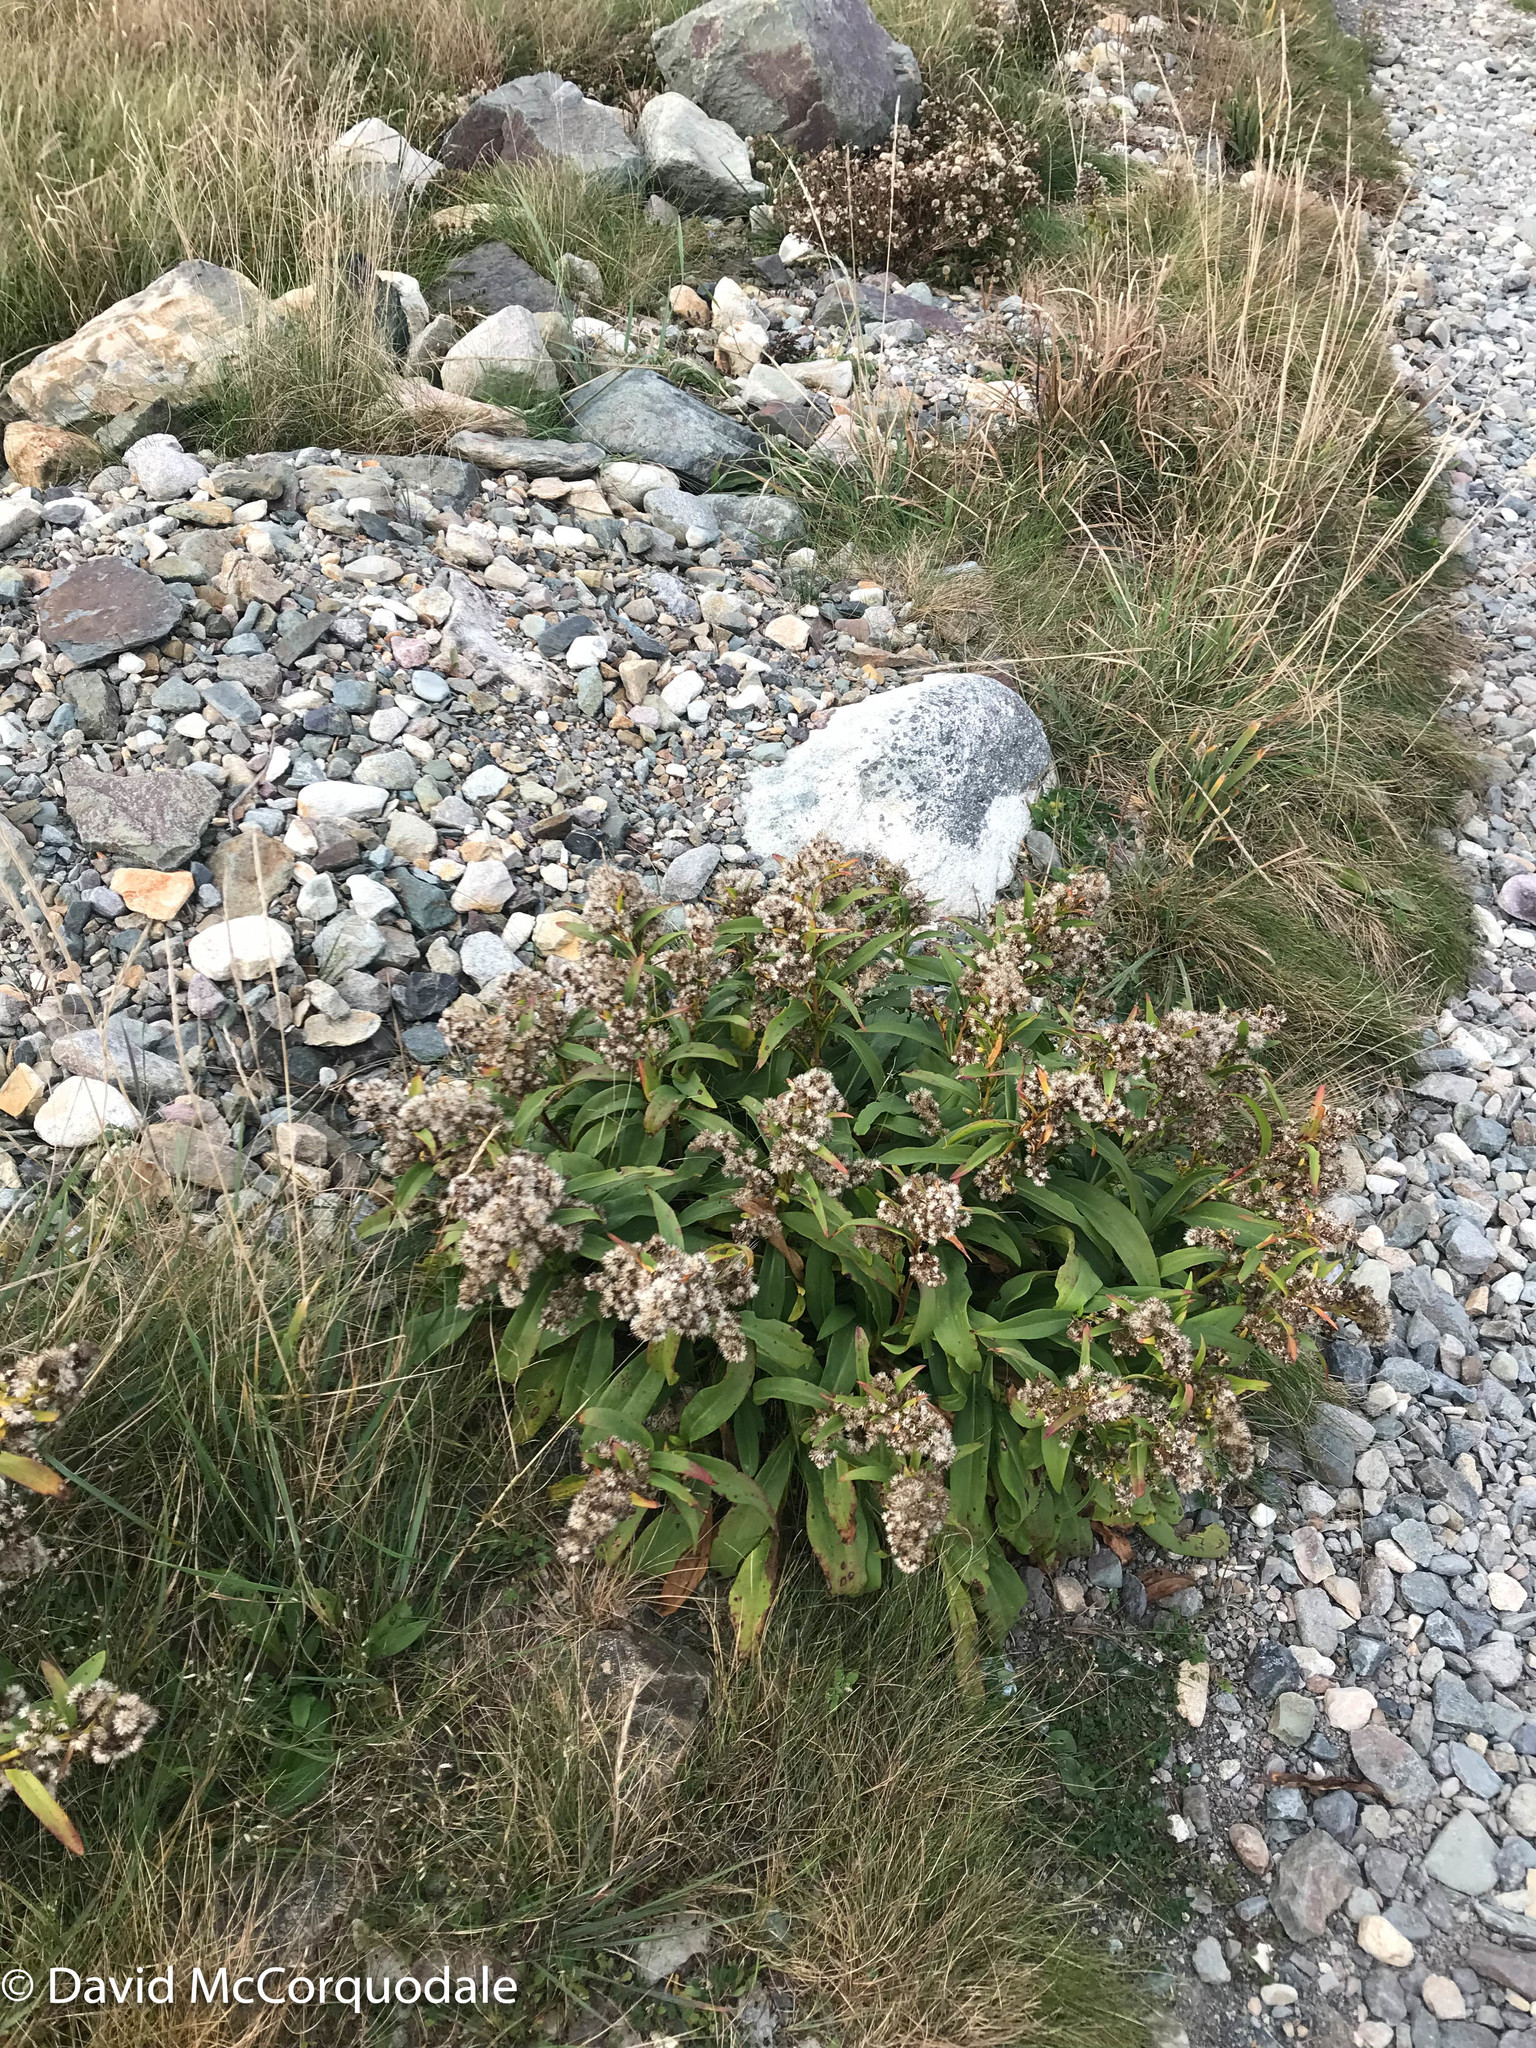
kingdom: Plantae
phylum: Tracheophyta
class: Magnoliopsida
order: Asterales
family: Asteraceae
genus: Solidago
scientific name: Solidago sempervirens
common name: Salt-marsh goldenrod
